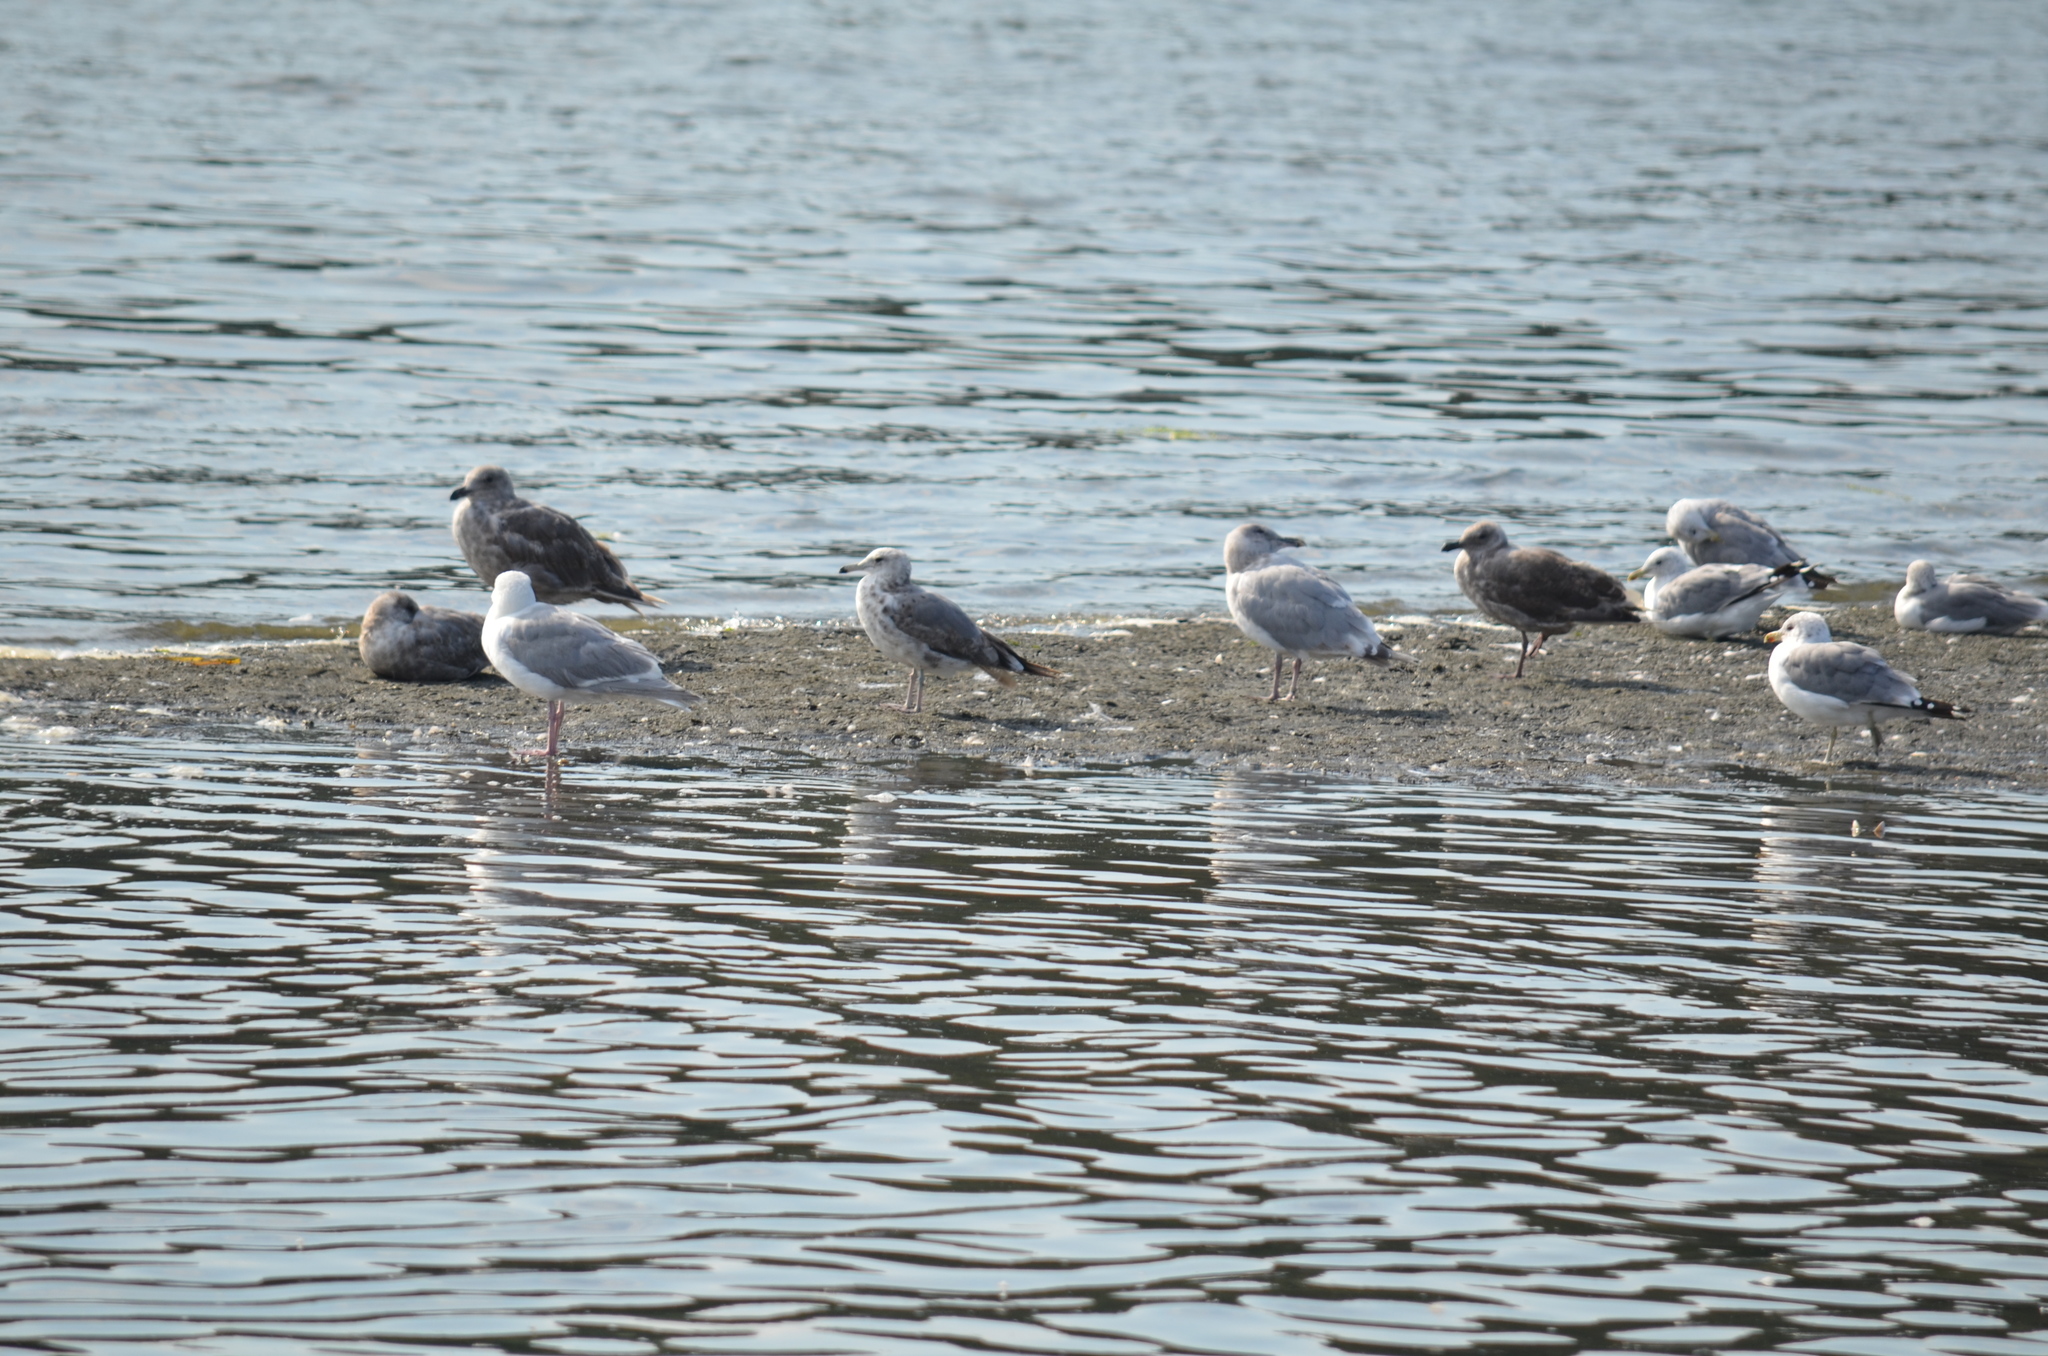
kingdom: Animalia
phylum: Chordata
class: Aves
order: Charadriiformes
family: Laridae
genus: Larus
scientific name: Larus californicus
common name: California gull
